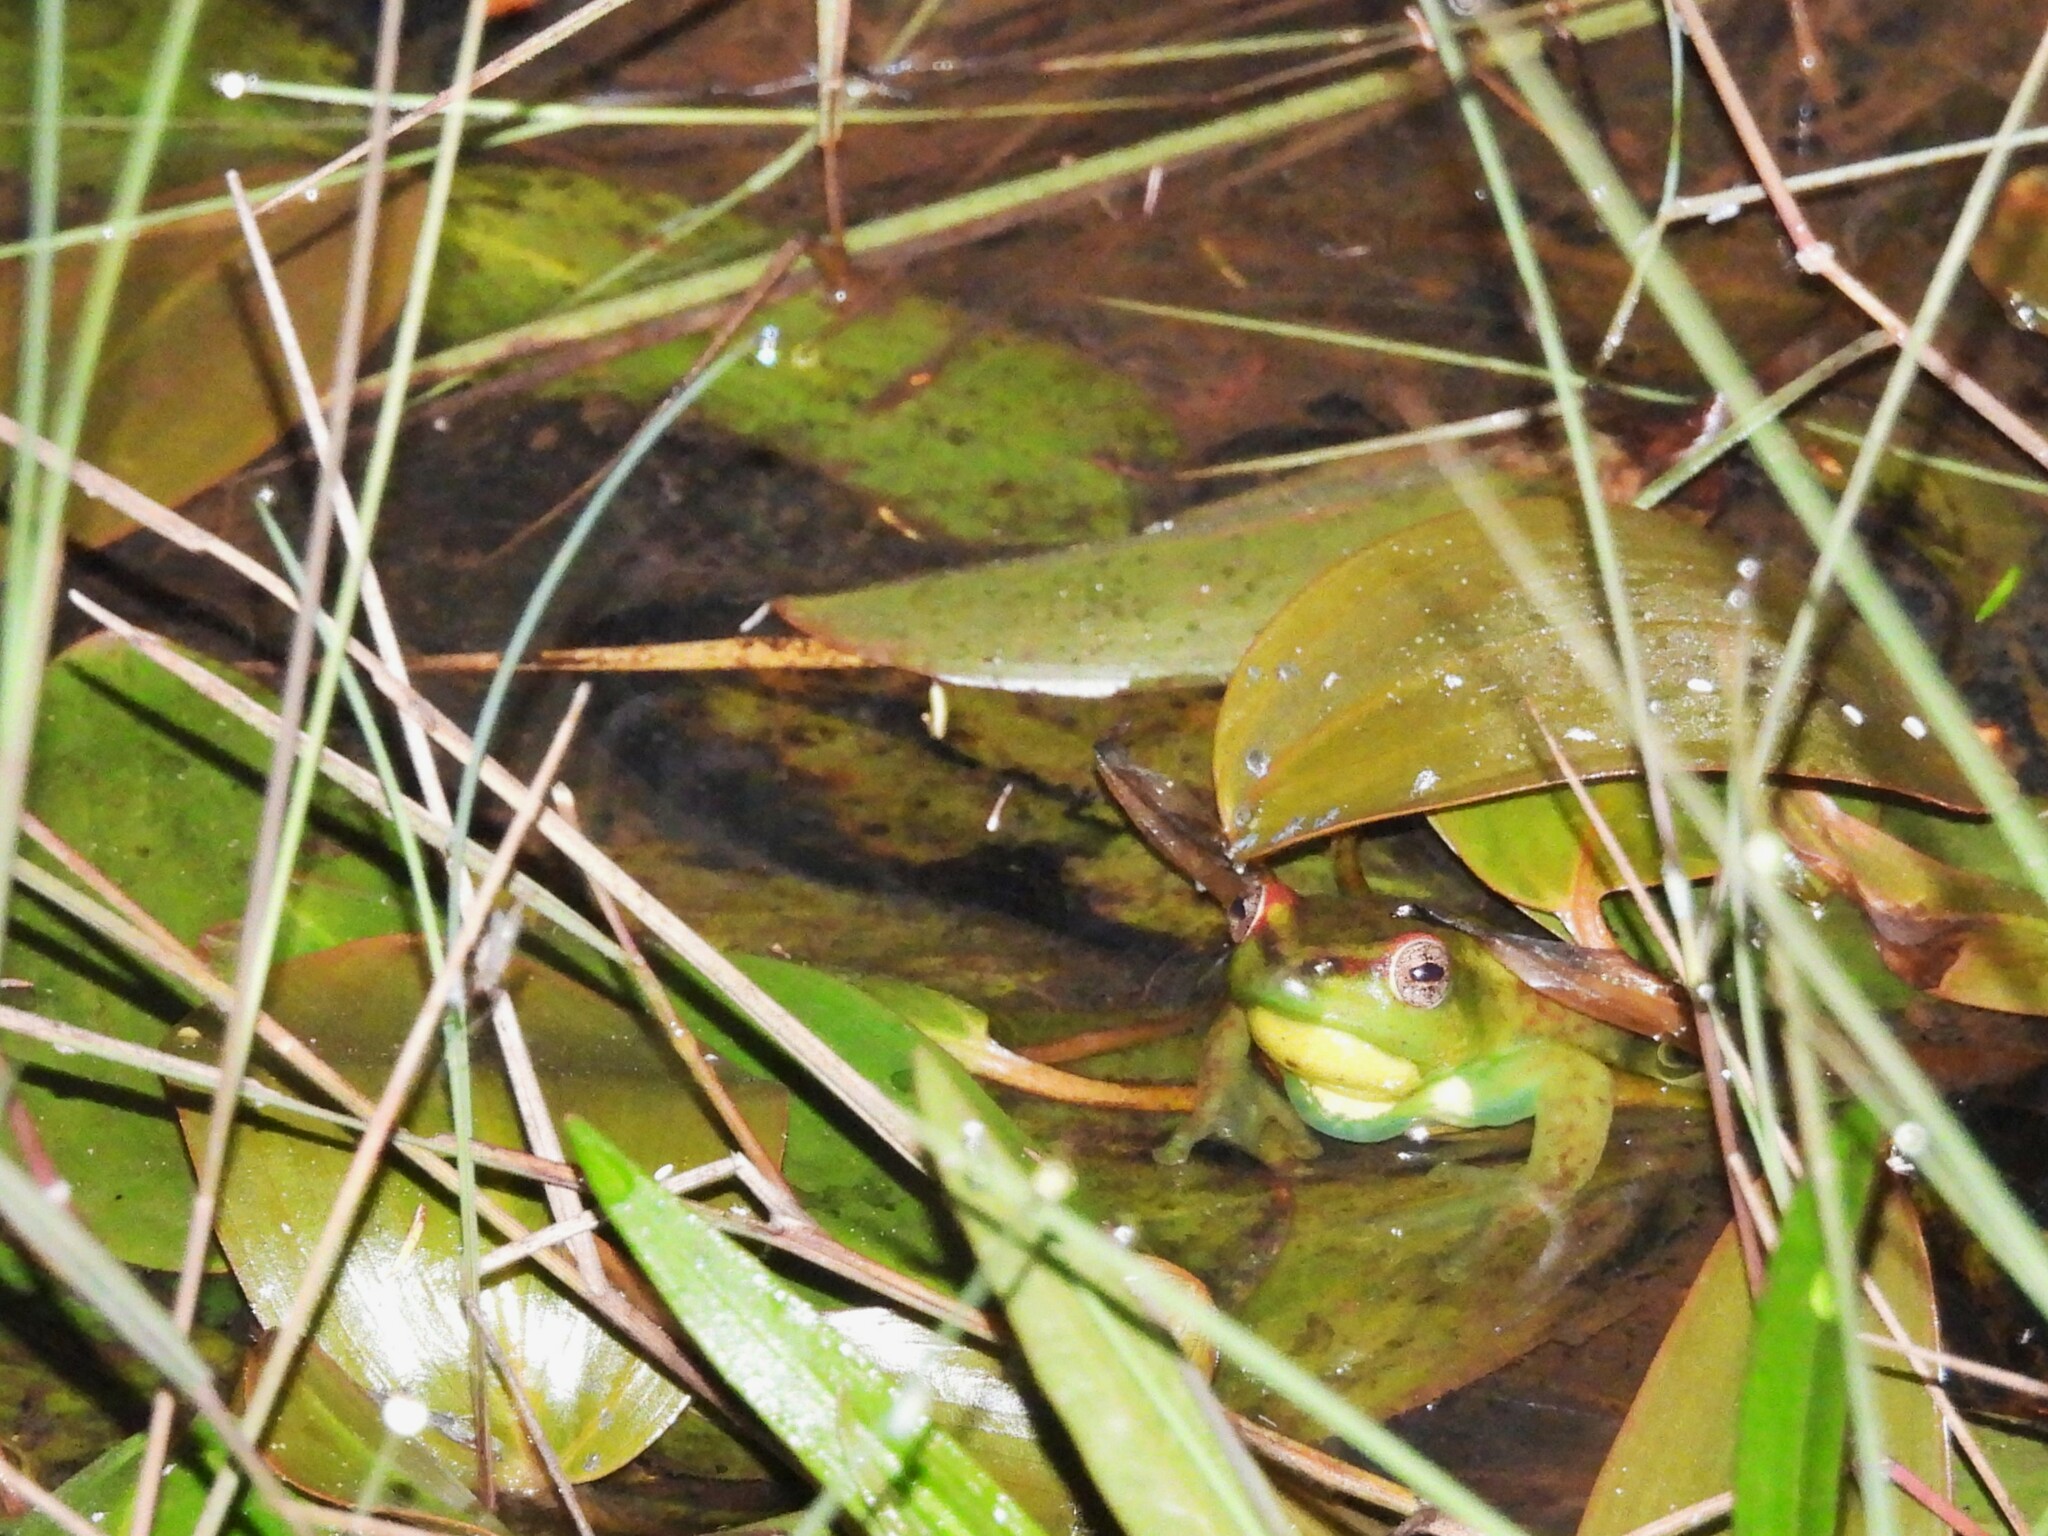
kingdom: Animalia
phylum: Chordata
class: Amphibia
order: Anura
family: Hyperoliidae
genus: Hyperolius
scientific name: Hyperolius pseudargus
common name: Mette's reed frog
